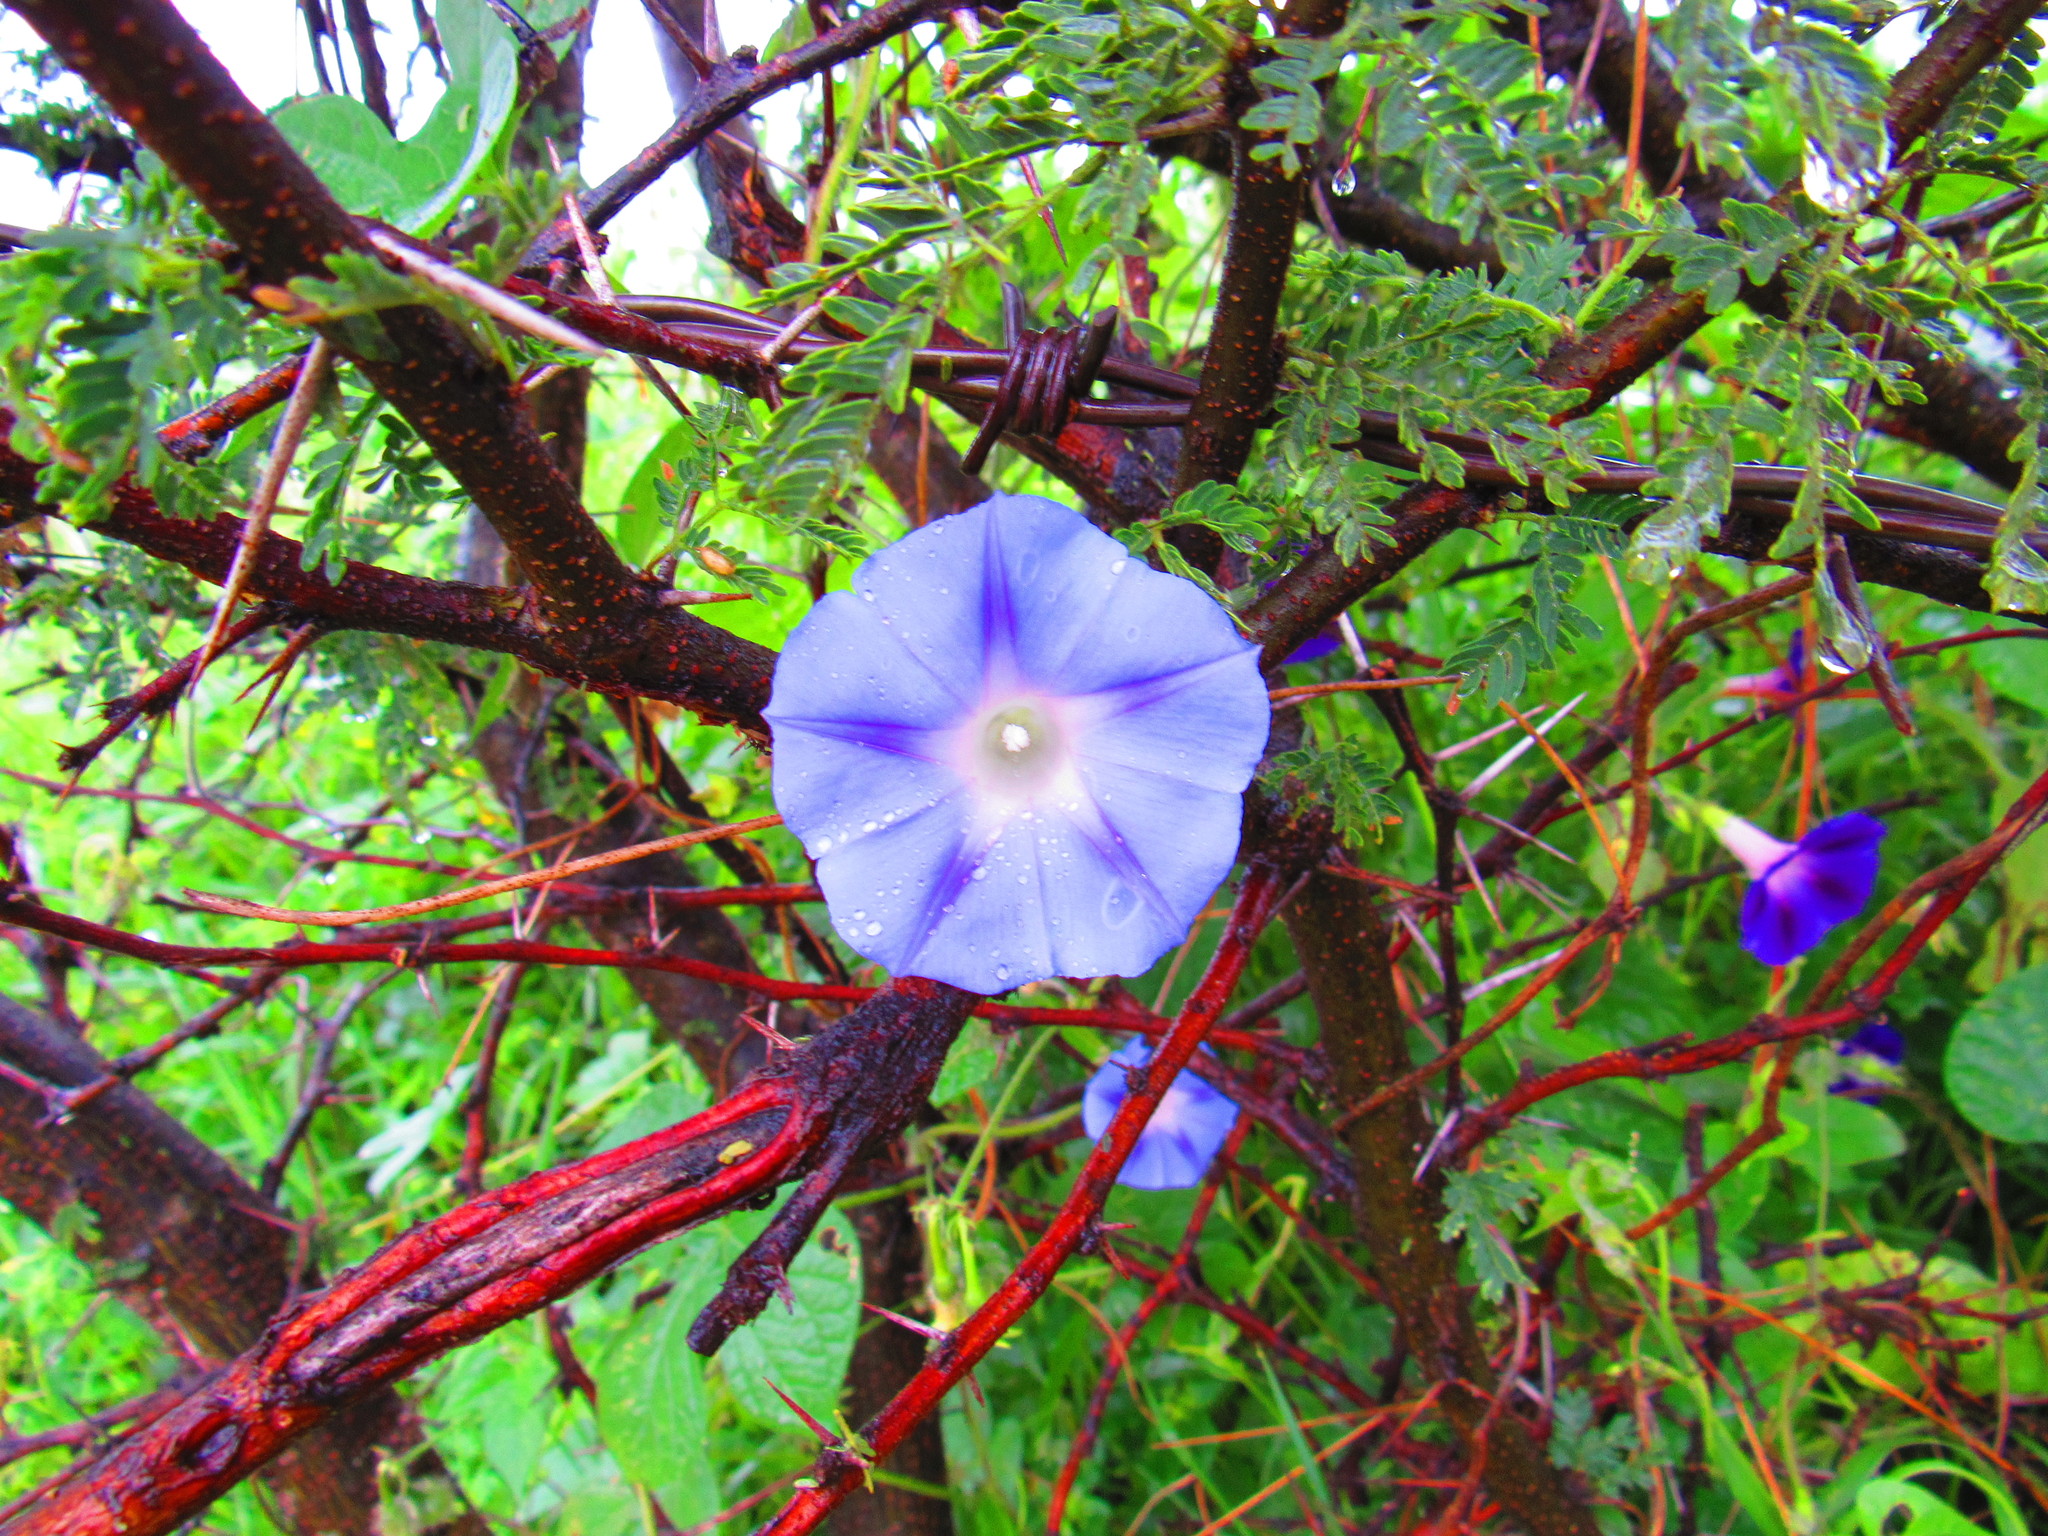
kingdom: Plantae
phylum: Tracheophyta
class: Magnoliopsida
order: Solanales
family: Convolvulaceae
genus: Ipomoea
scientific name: Ipomoea purpurea
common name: Common morning-glory
